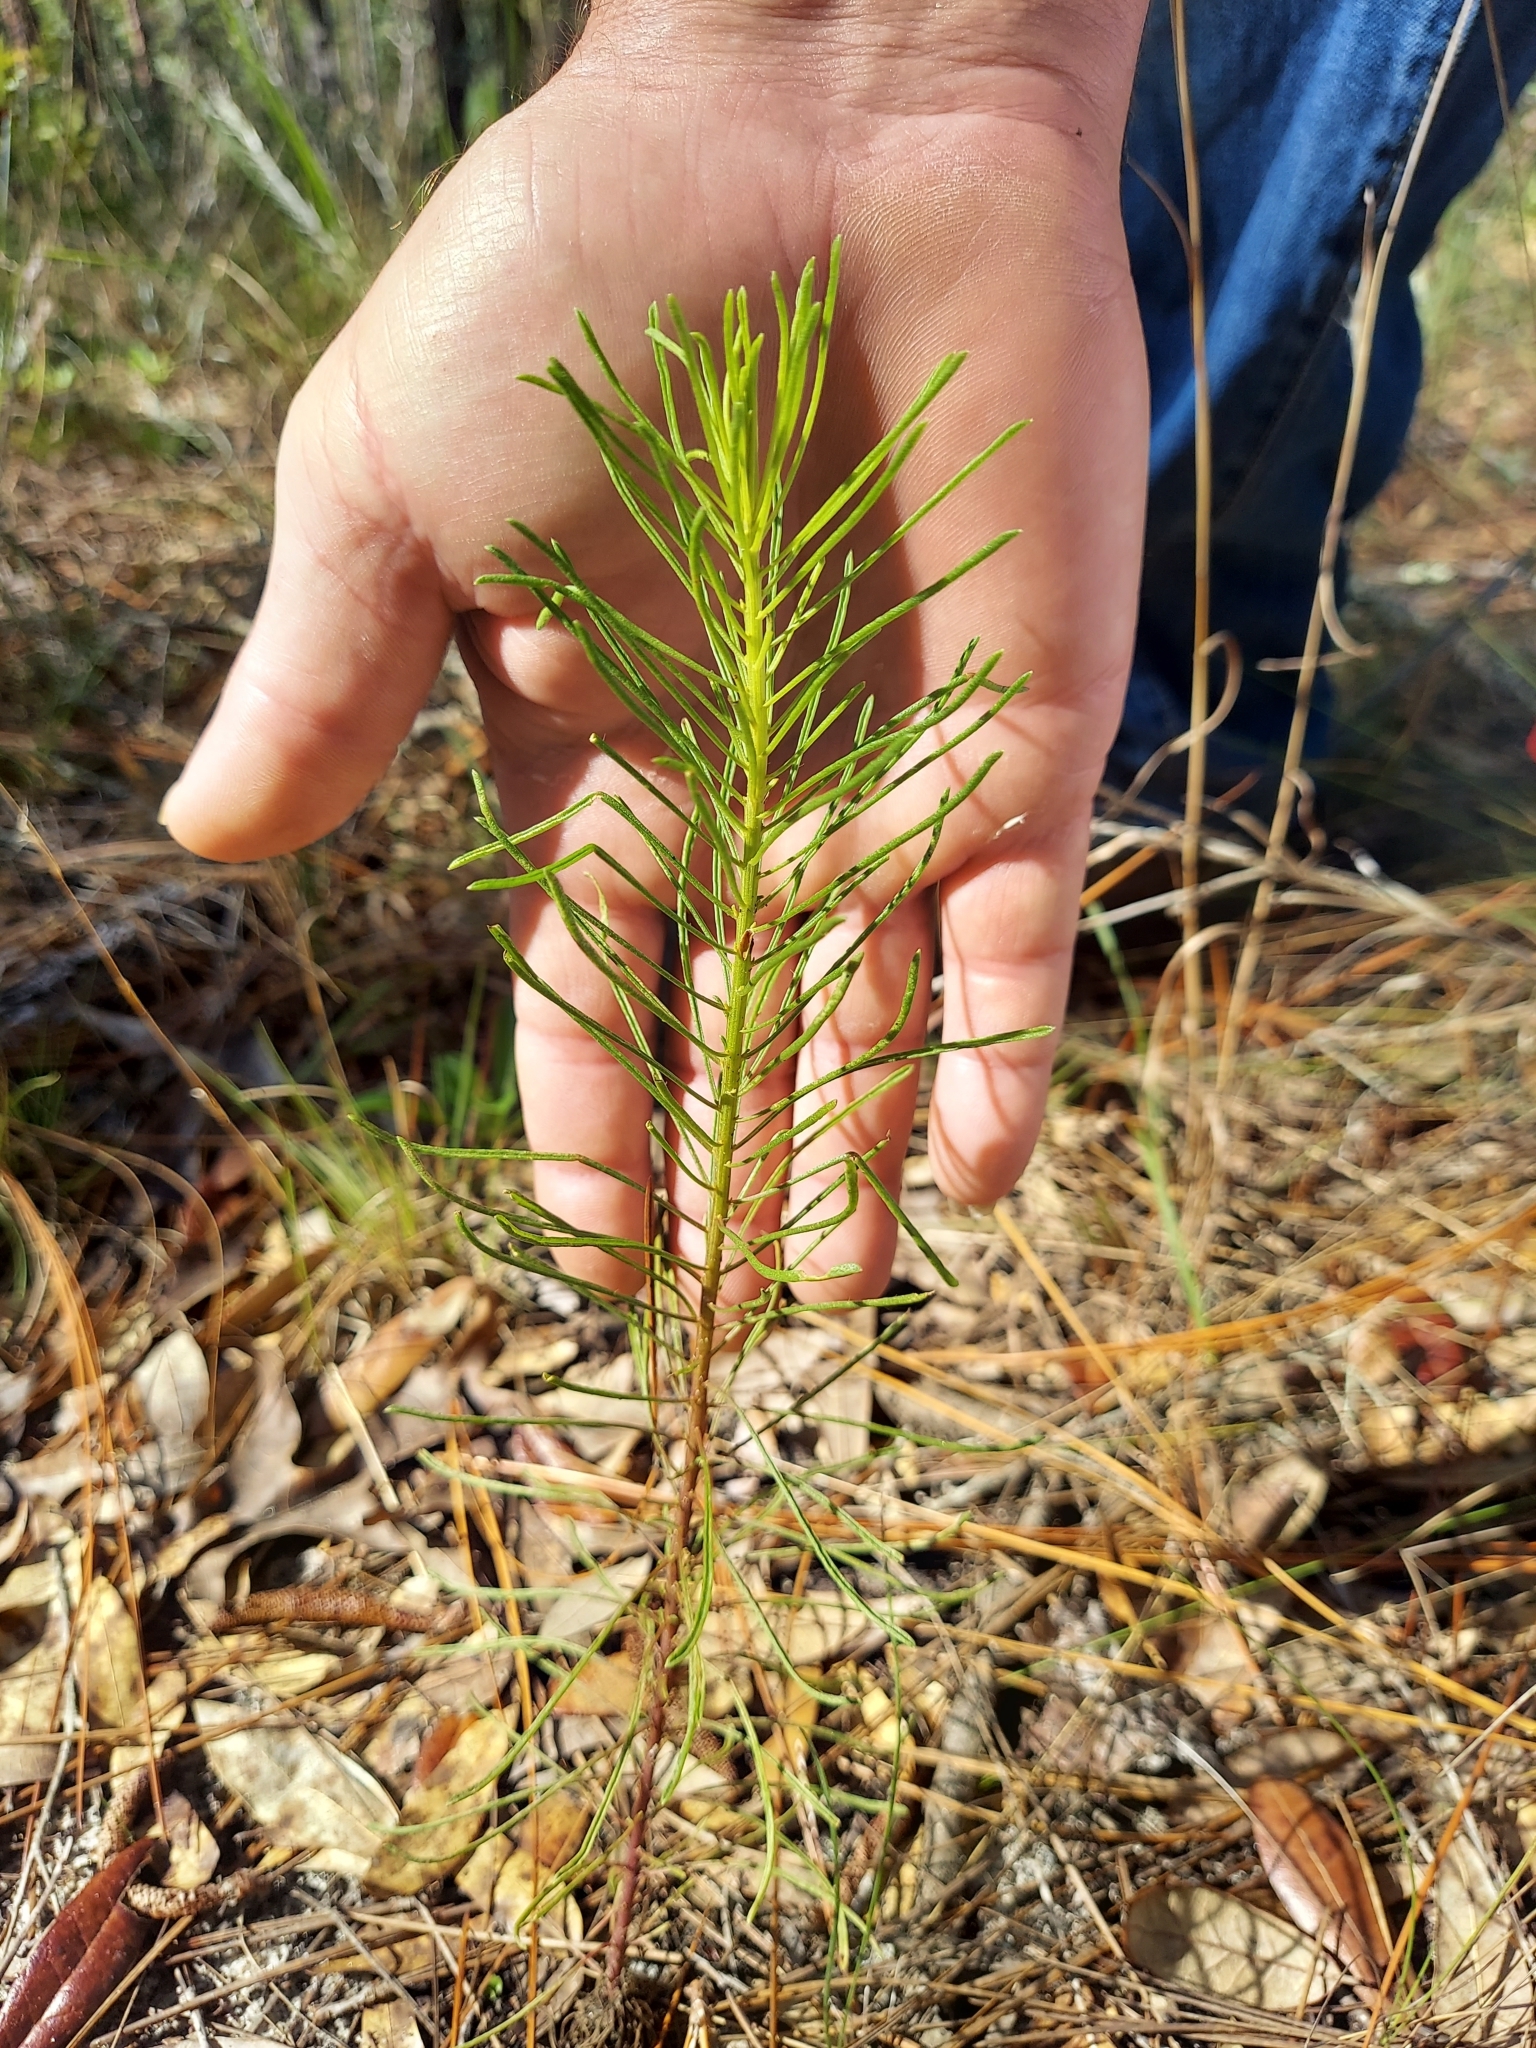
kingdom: Plantae
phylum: Tracheophyta
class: Magnoliopsida
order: Asterales
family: Asteraceae
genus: Balduina
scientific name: Balduina angustifolia
